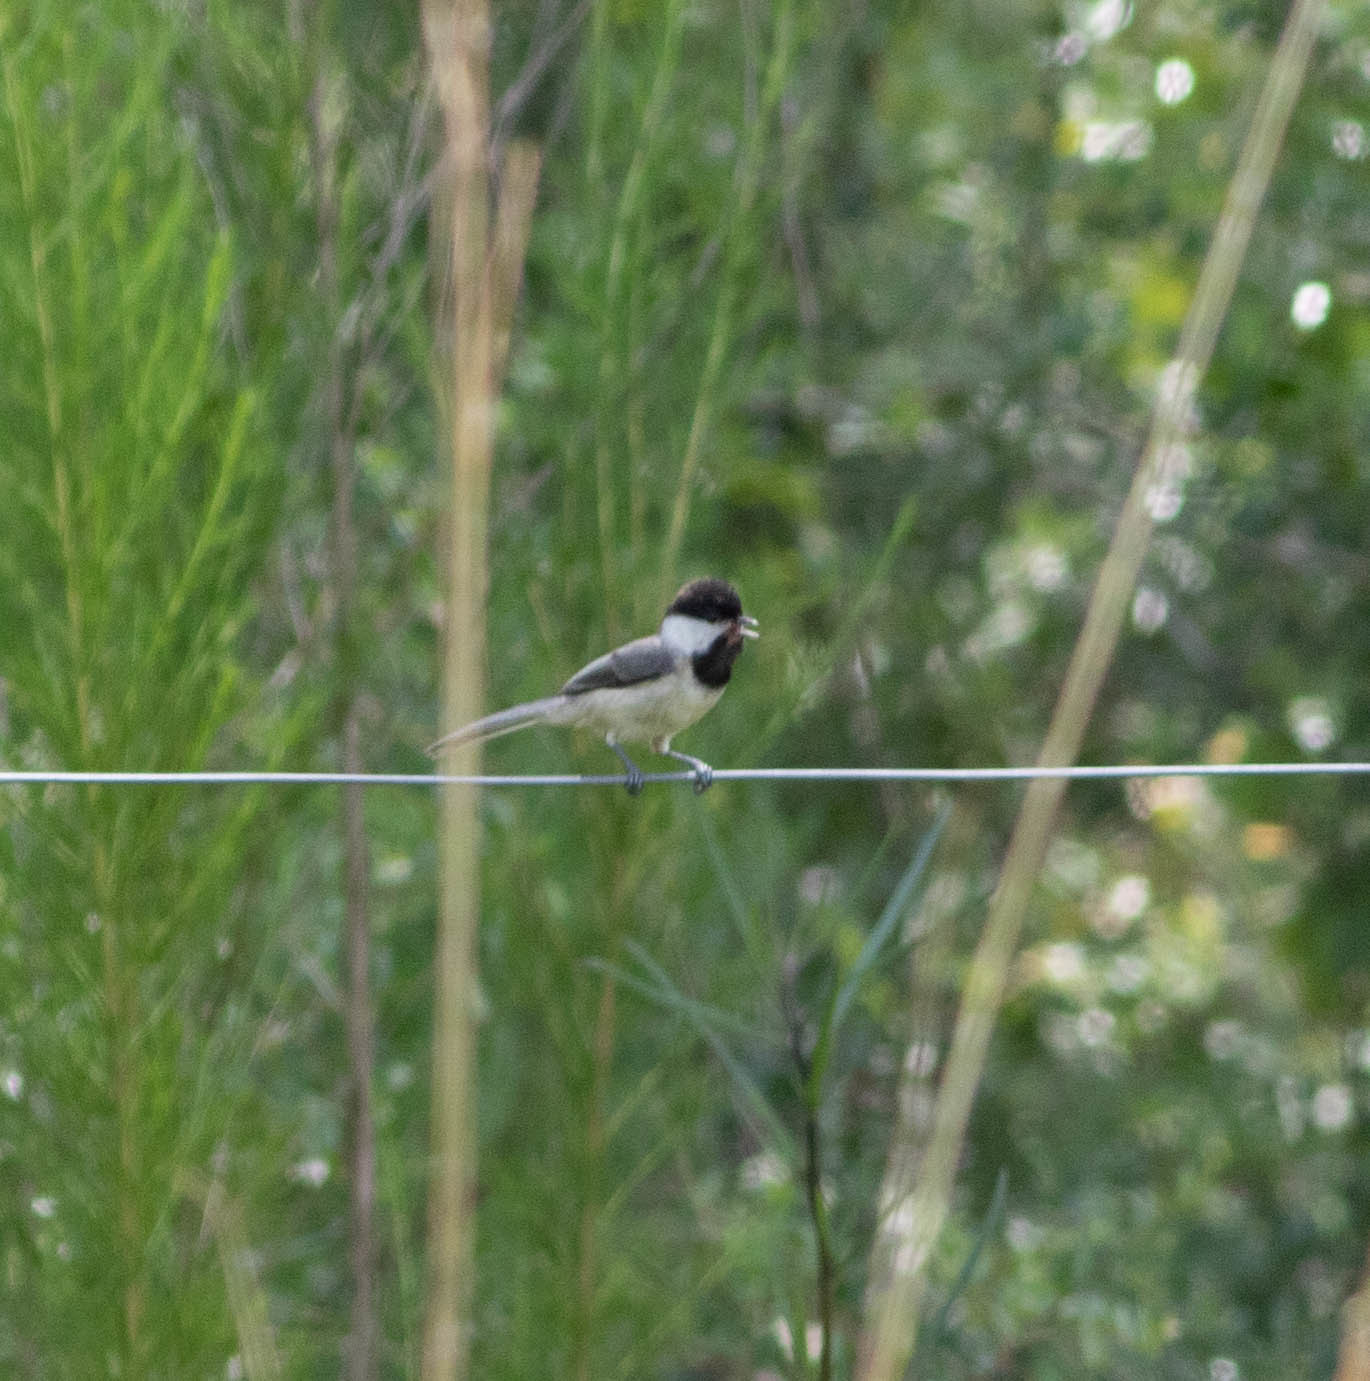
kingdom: Animalia
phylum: Chordata
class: Aves
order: Passeriformes
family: Paridae
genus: Poecile
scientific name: Poecile carolinensis
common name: Carolina chickadee
